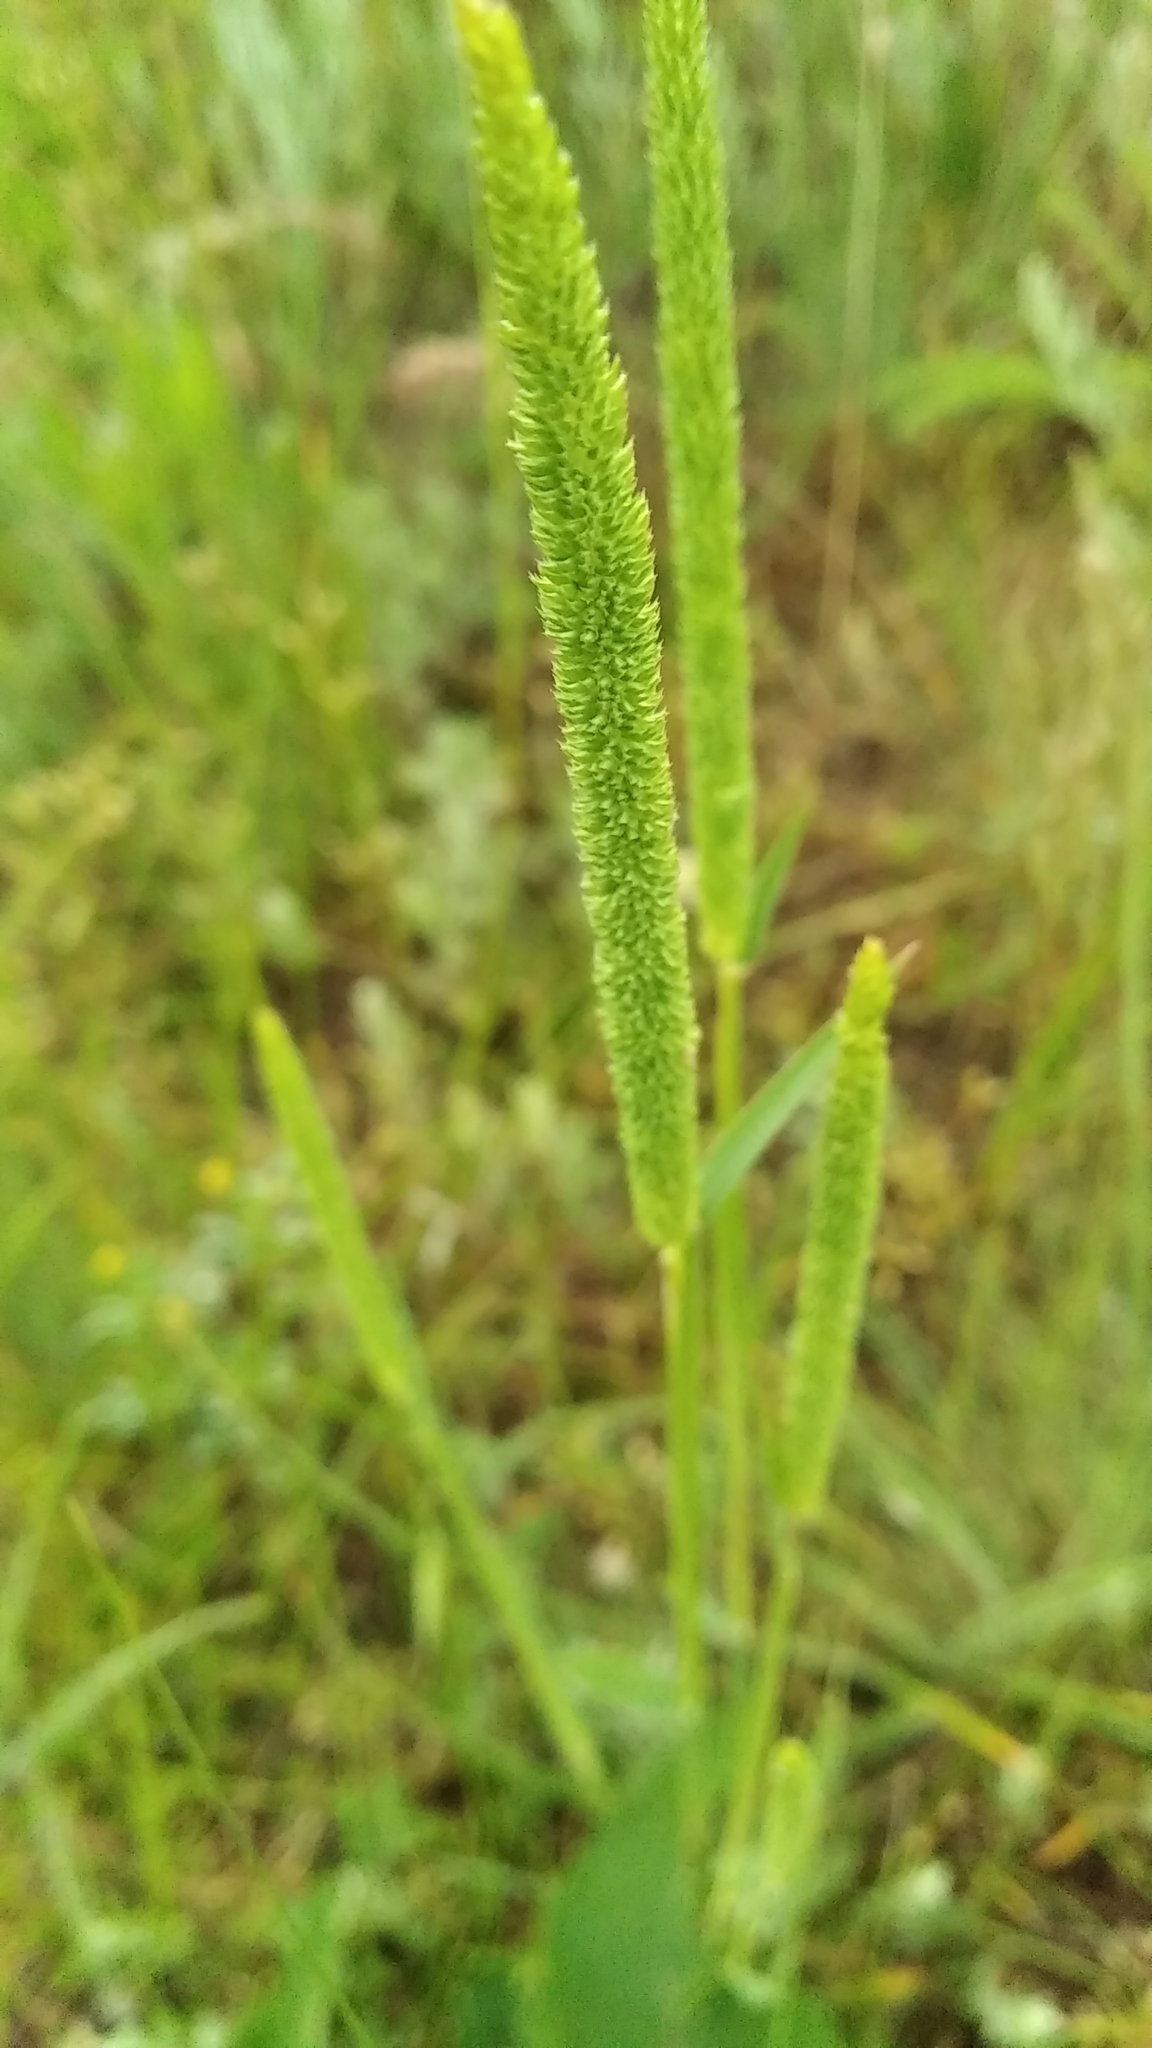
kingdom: Plantae
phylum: Tracheophyta
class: Liliopsida
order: Poales
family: Poaceae
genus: Phleum
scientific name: Phleum phleoides
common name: Purple-stem cat's-tail
